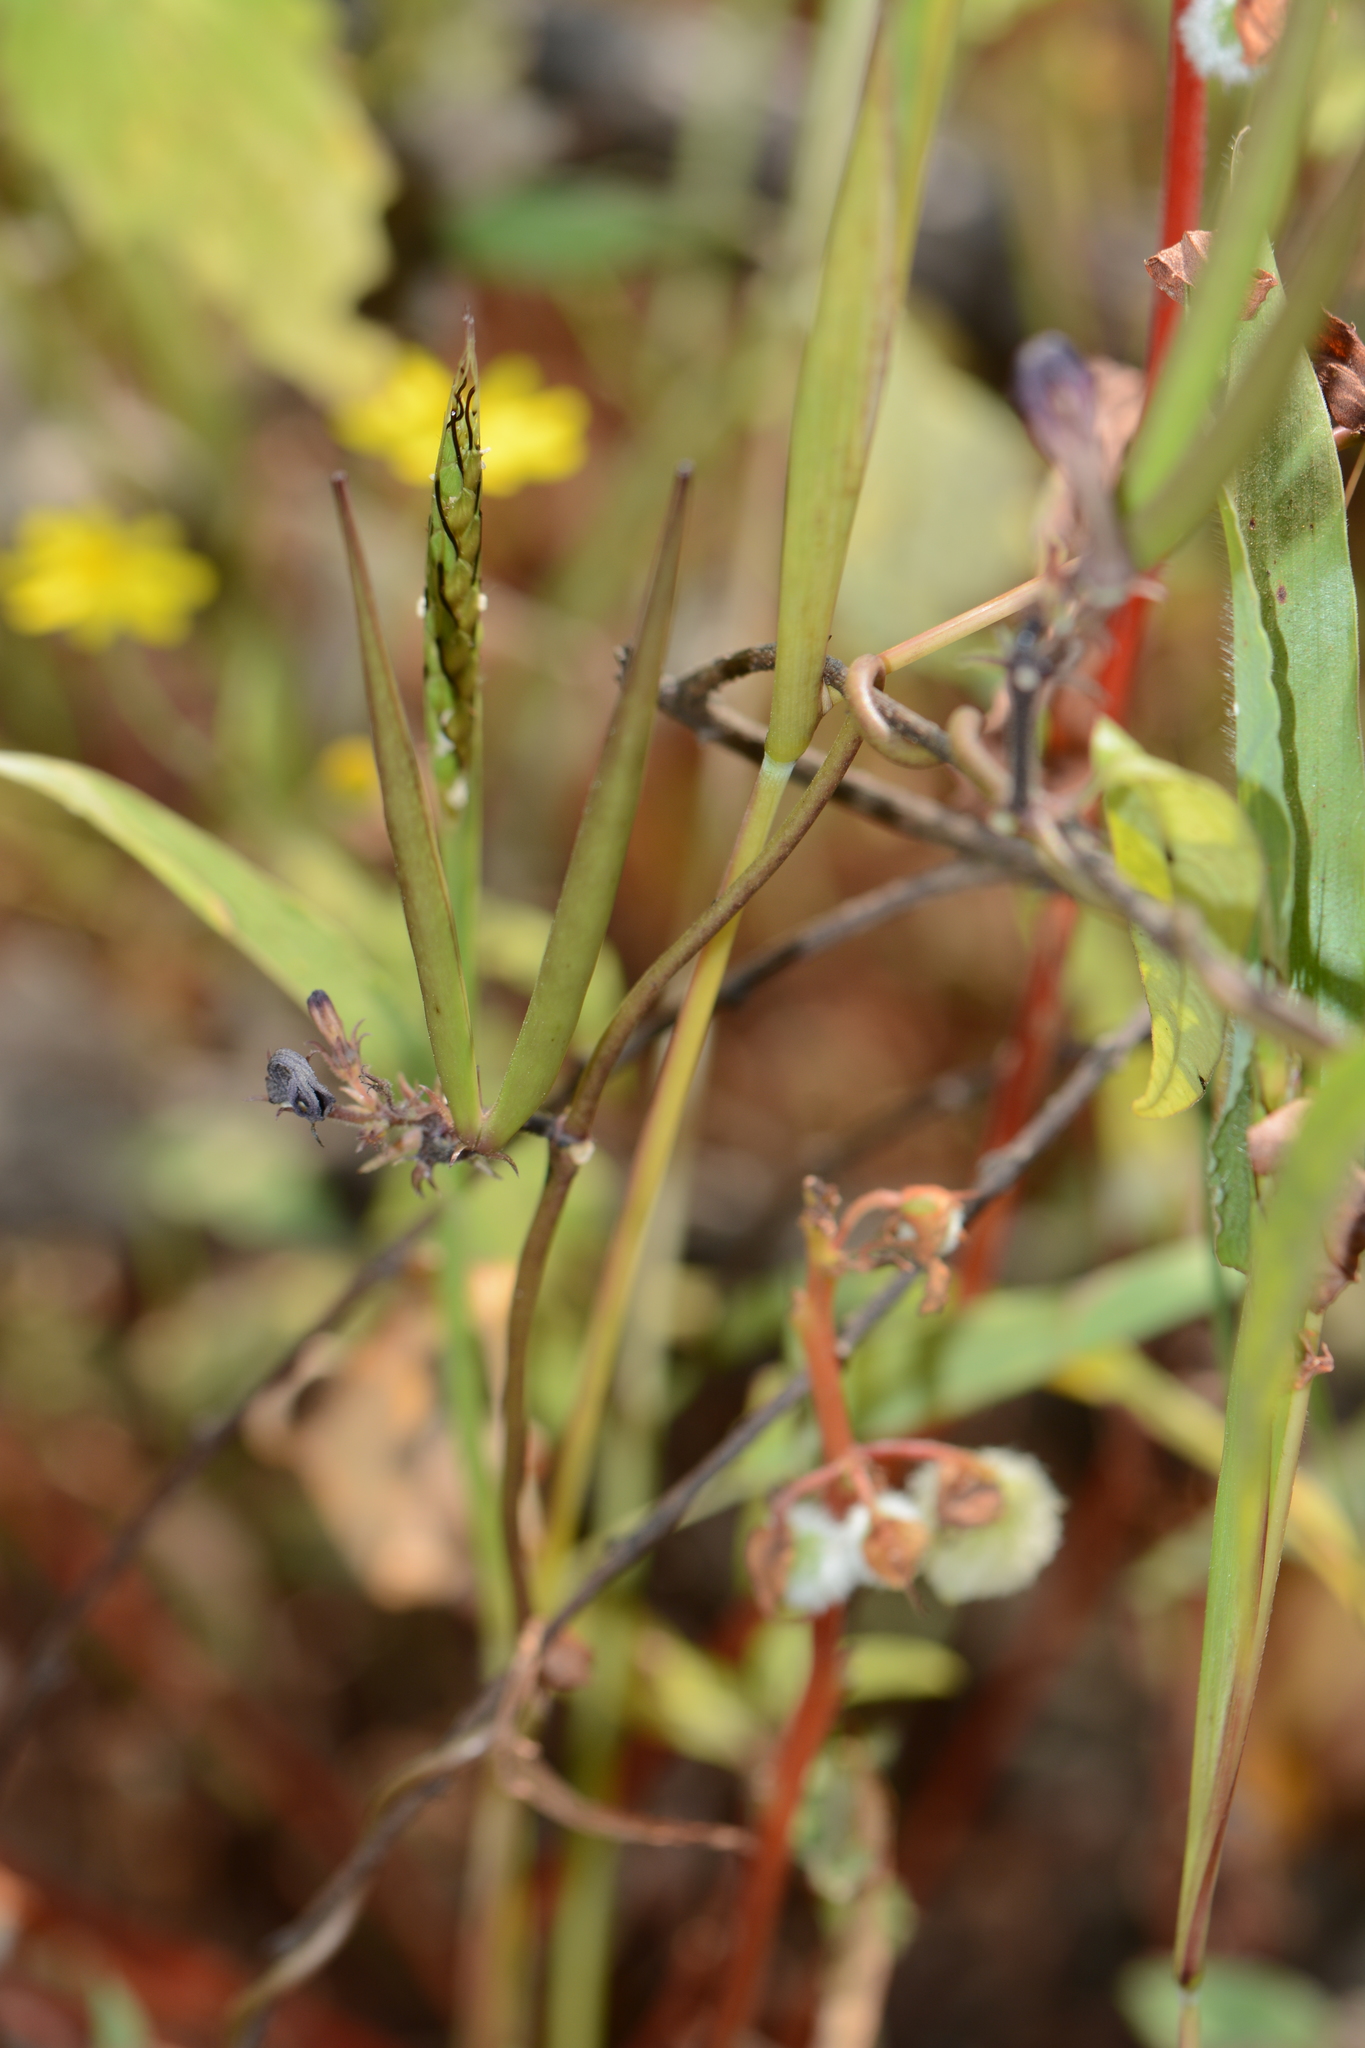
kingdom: Plantae
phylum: Tracheophyta
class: Magnoliopsida
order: Gentianales
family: Apocynaceae
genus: Ceropegia
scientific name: Ceropegia media
